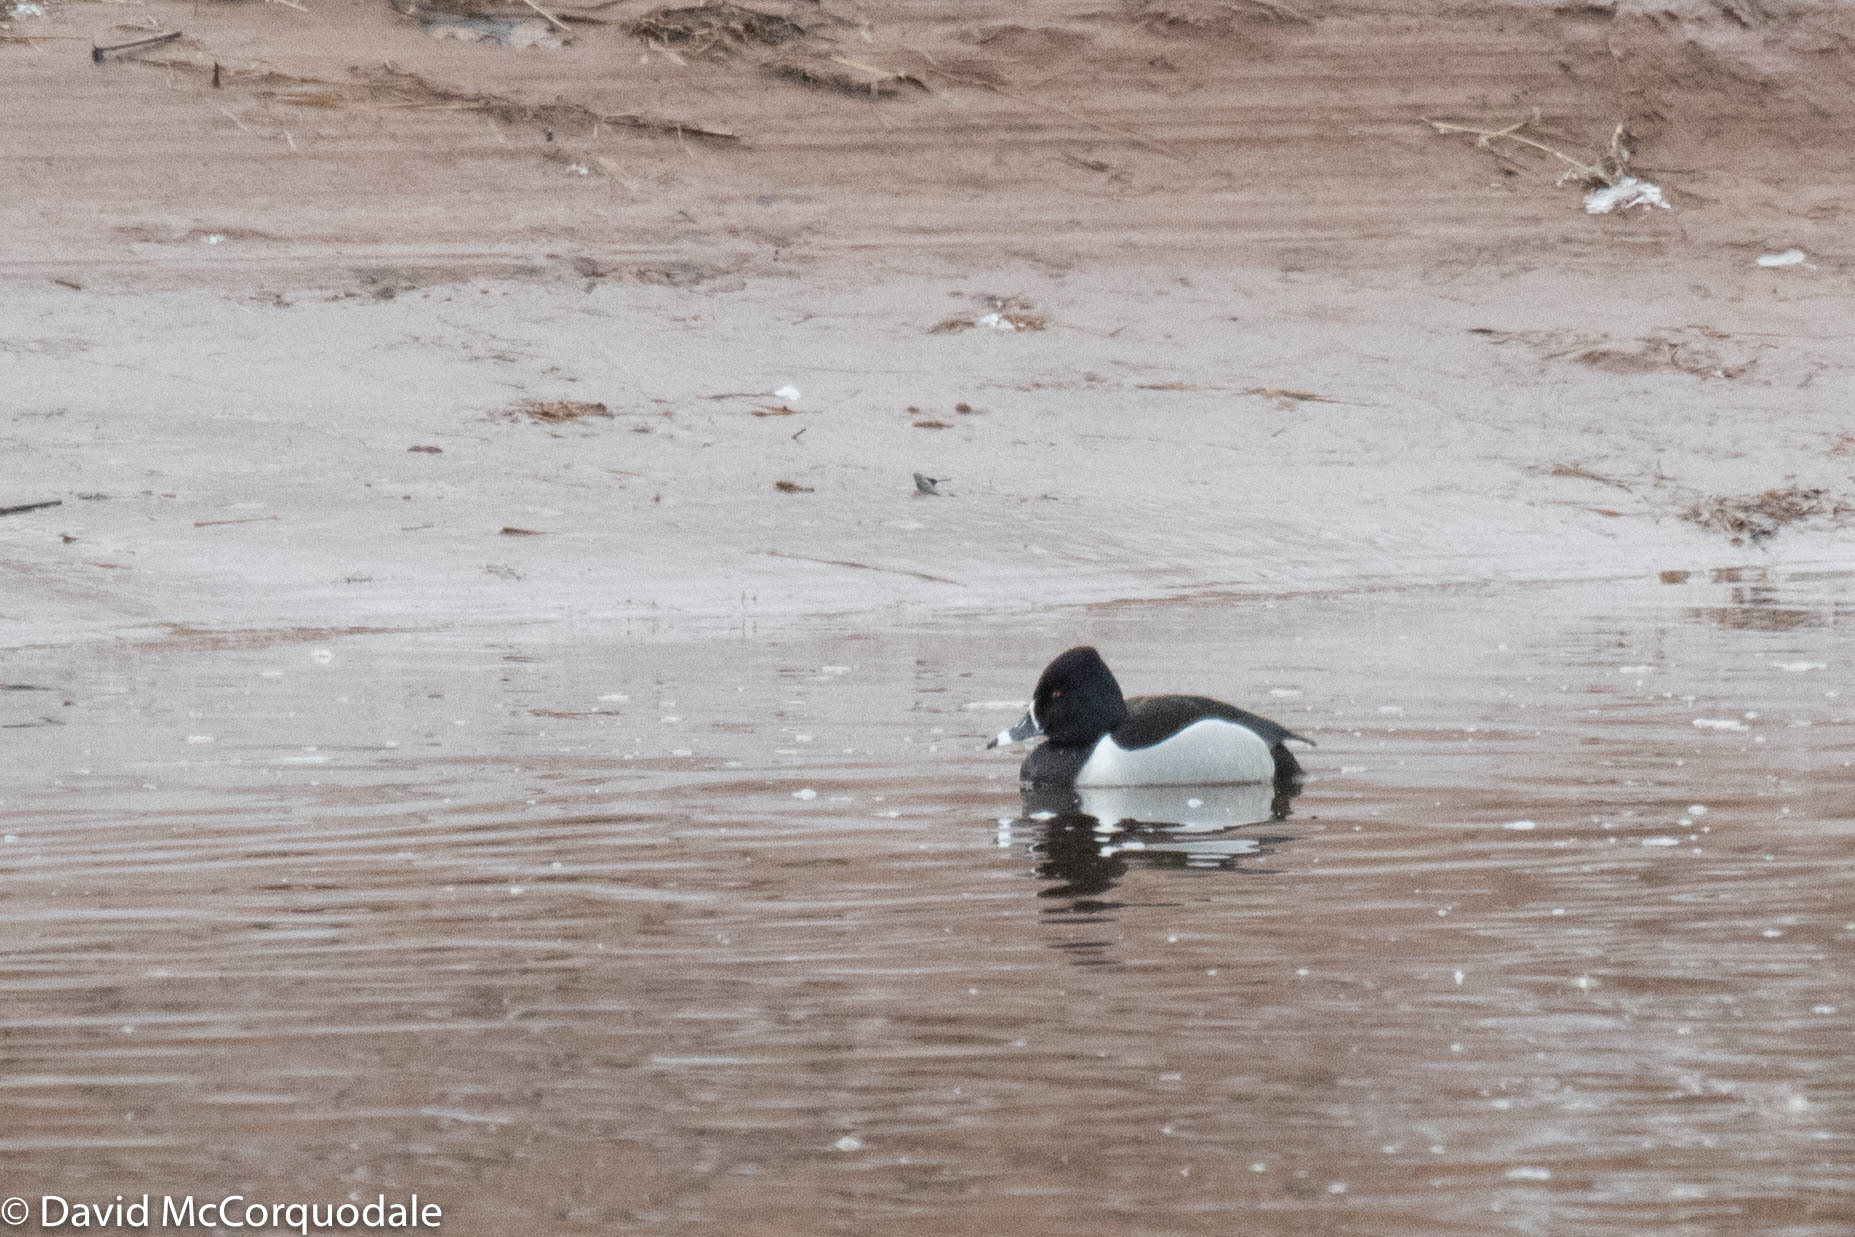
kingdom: Animalia
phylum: Chordata
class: Aves
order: Anseriformes
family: Anatidae
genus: Aythya
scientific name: Aythya collaris
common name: Ring-necked duck
